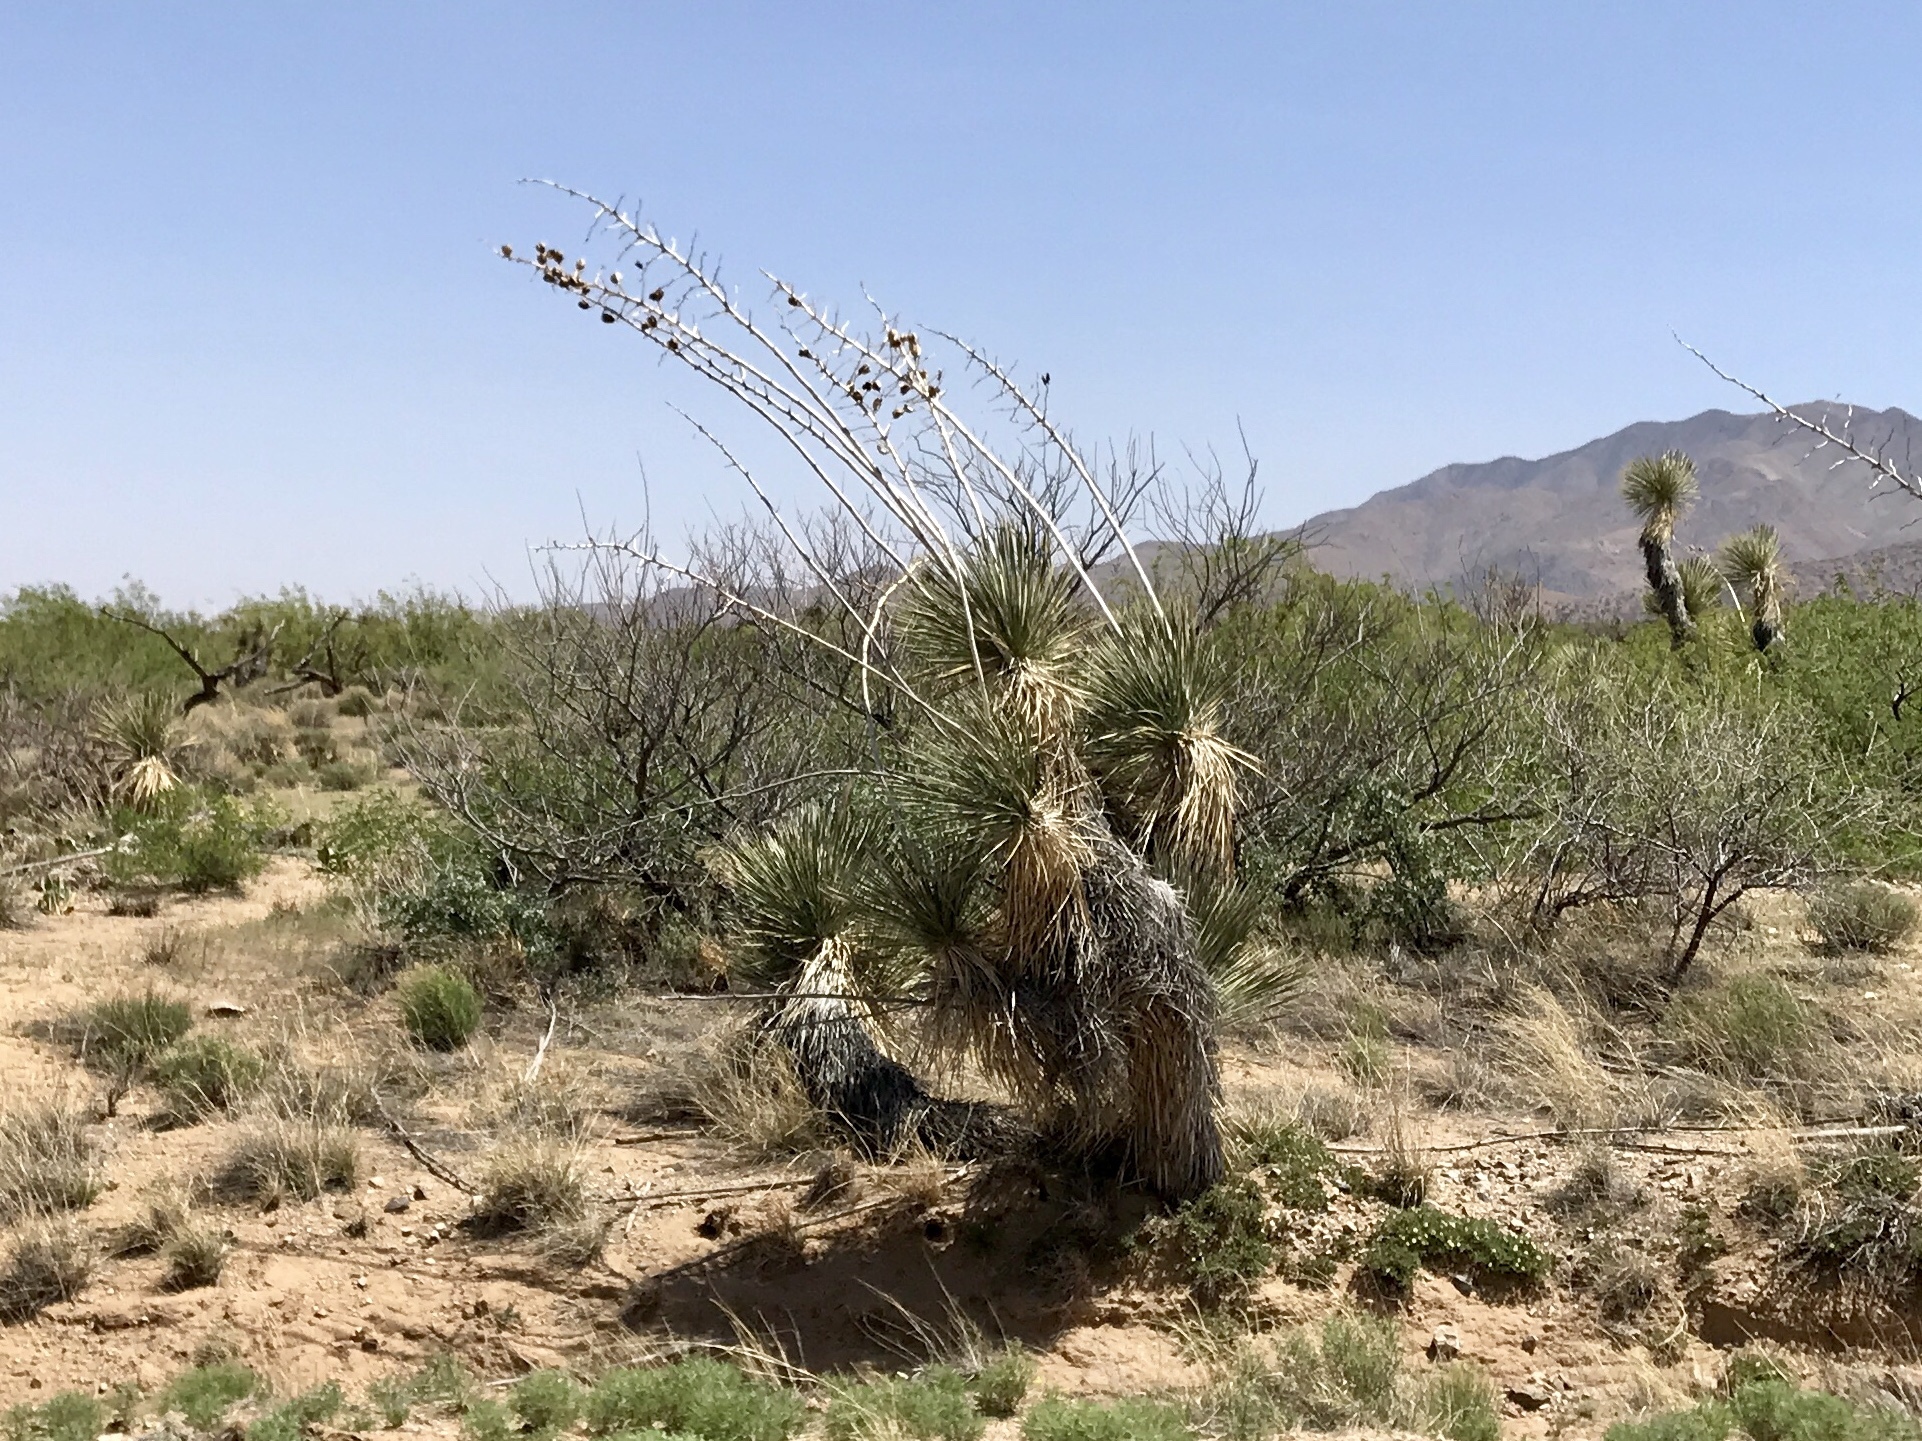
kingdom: Plantae
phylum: Tracheophyta
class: Liliopsida
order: Asparagales
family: Asparagaceae
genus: Yucca
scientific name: Yucca elata
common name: Palmella
